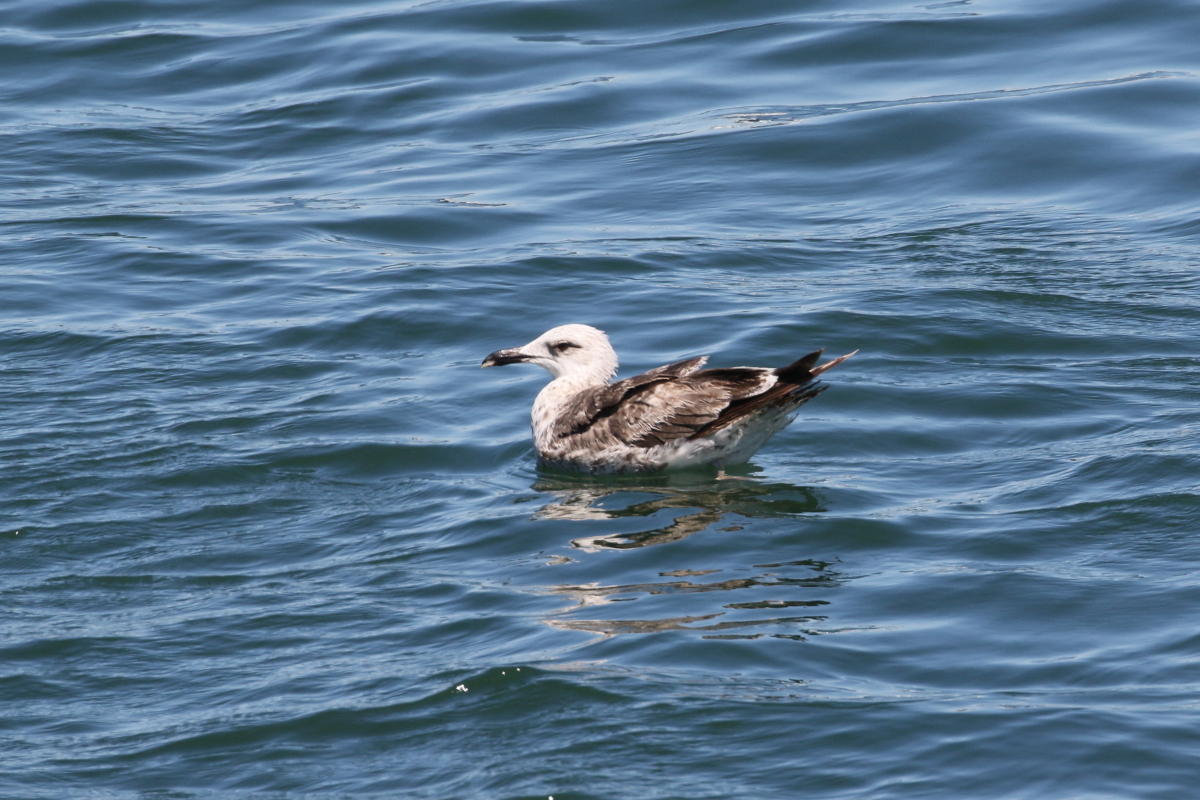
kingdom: Animalia
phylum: Chordata
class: Aves
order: Charadriiformes
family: Laridae
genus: Larus
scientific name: Larus fuscus
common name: Lesser black-backed gull
